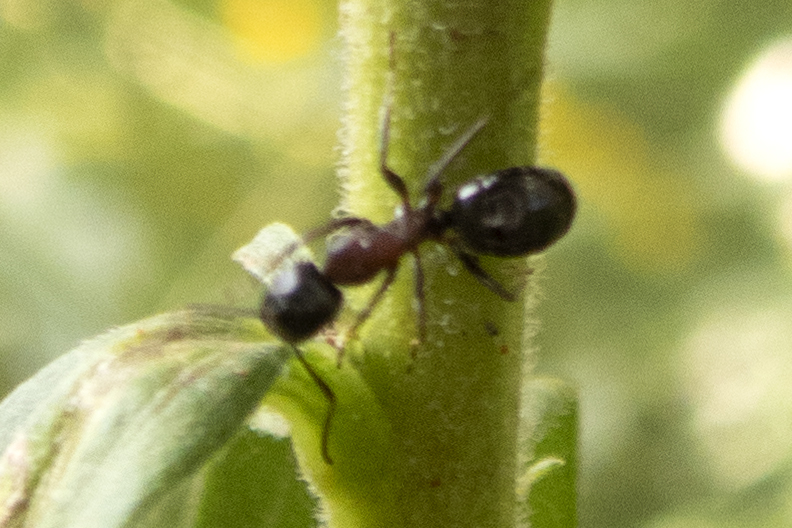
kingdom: Animalia
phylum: Arthropoda
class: Insecta
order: Hymenoptera
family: Formicidae
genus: Camponotus
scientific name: Camponotus novaeboracensis
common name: New york carpenter ant
